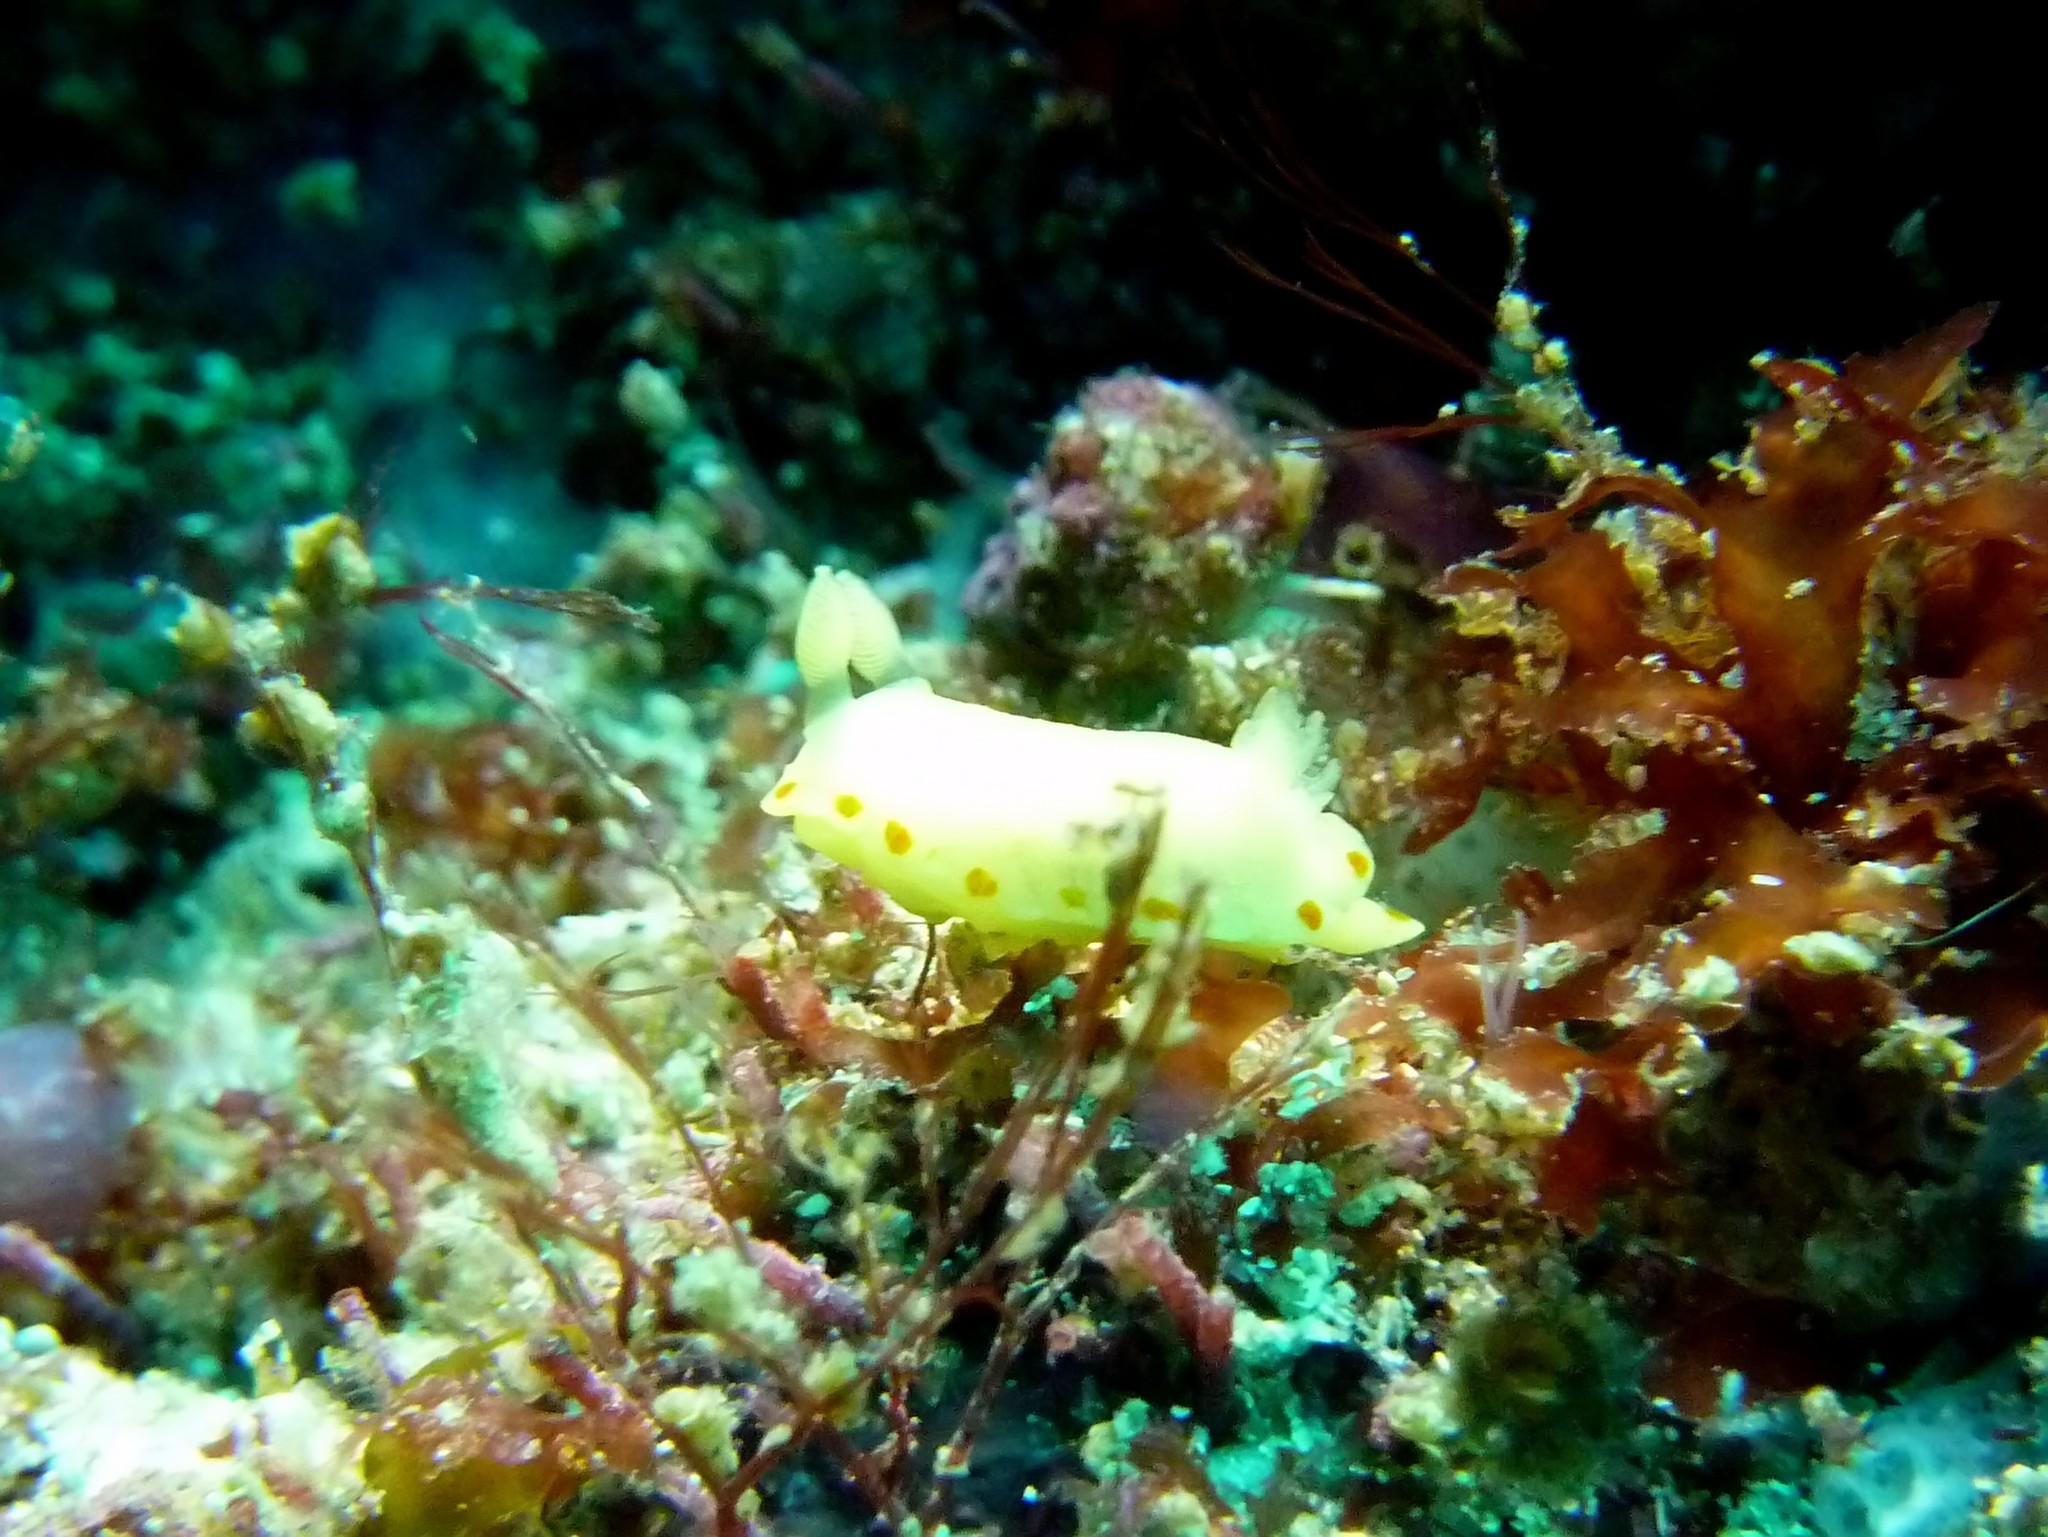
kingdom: Animalia
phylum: Mollusca
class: Gastropoda
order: Nudibranchia
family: Chromodorididae
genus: Diversidoris
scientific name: Diversidoris sulphurea
